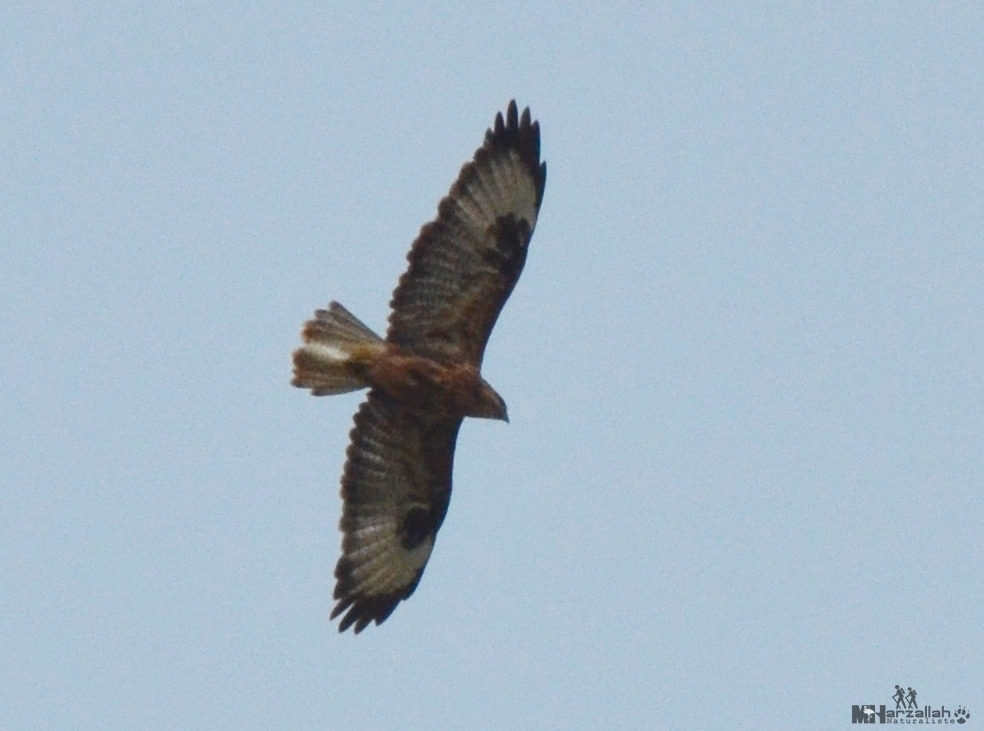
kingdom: Animalia
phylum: Chordata
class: Aves
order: Accipitriformes
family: Accipitridae
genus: Buteo
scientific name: Buteo rufinus
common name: Long-legged buzzard
